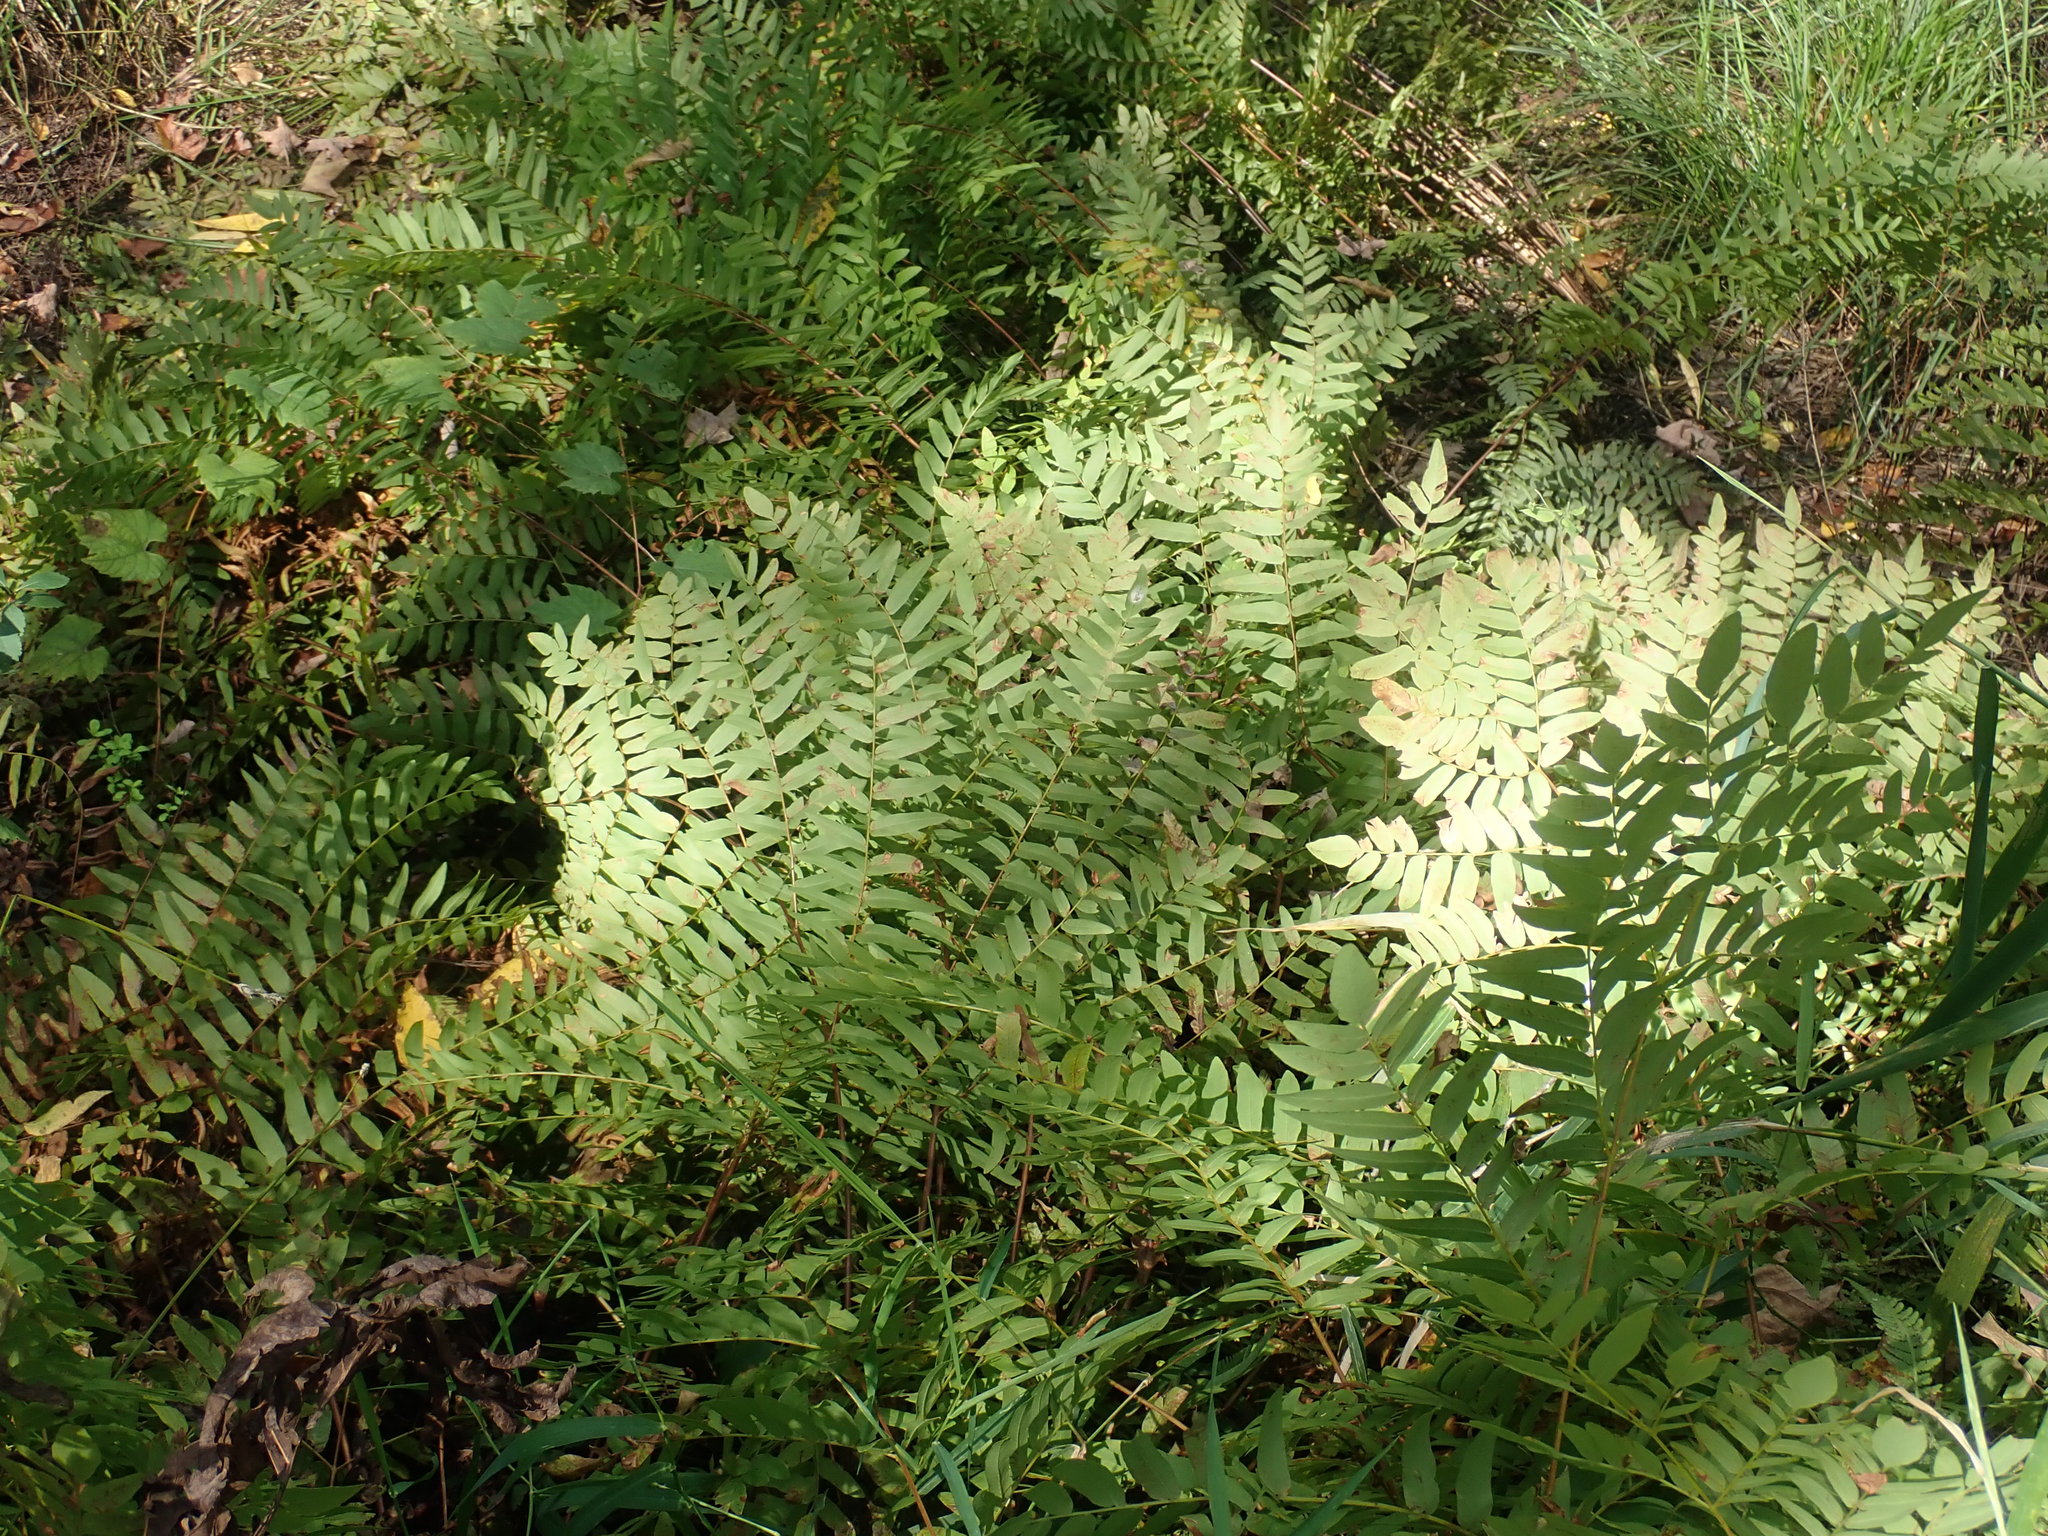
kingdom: Plantae
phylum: Tracheophyta
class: Polypodiopsida
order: Osmundales
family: Osmundaceae
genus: Osmunda
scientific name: Osmunda spectabilis
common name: American royal fern
